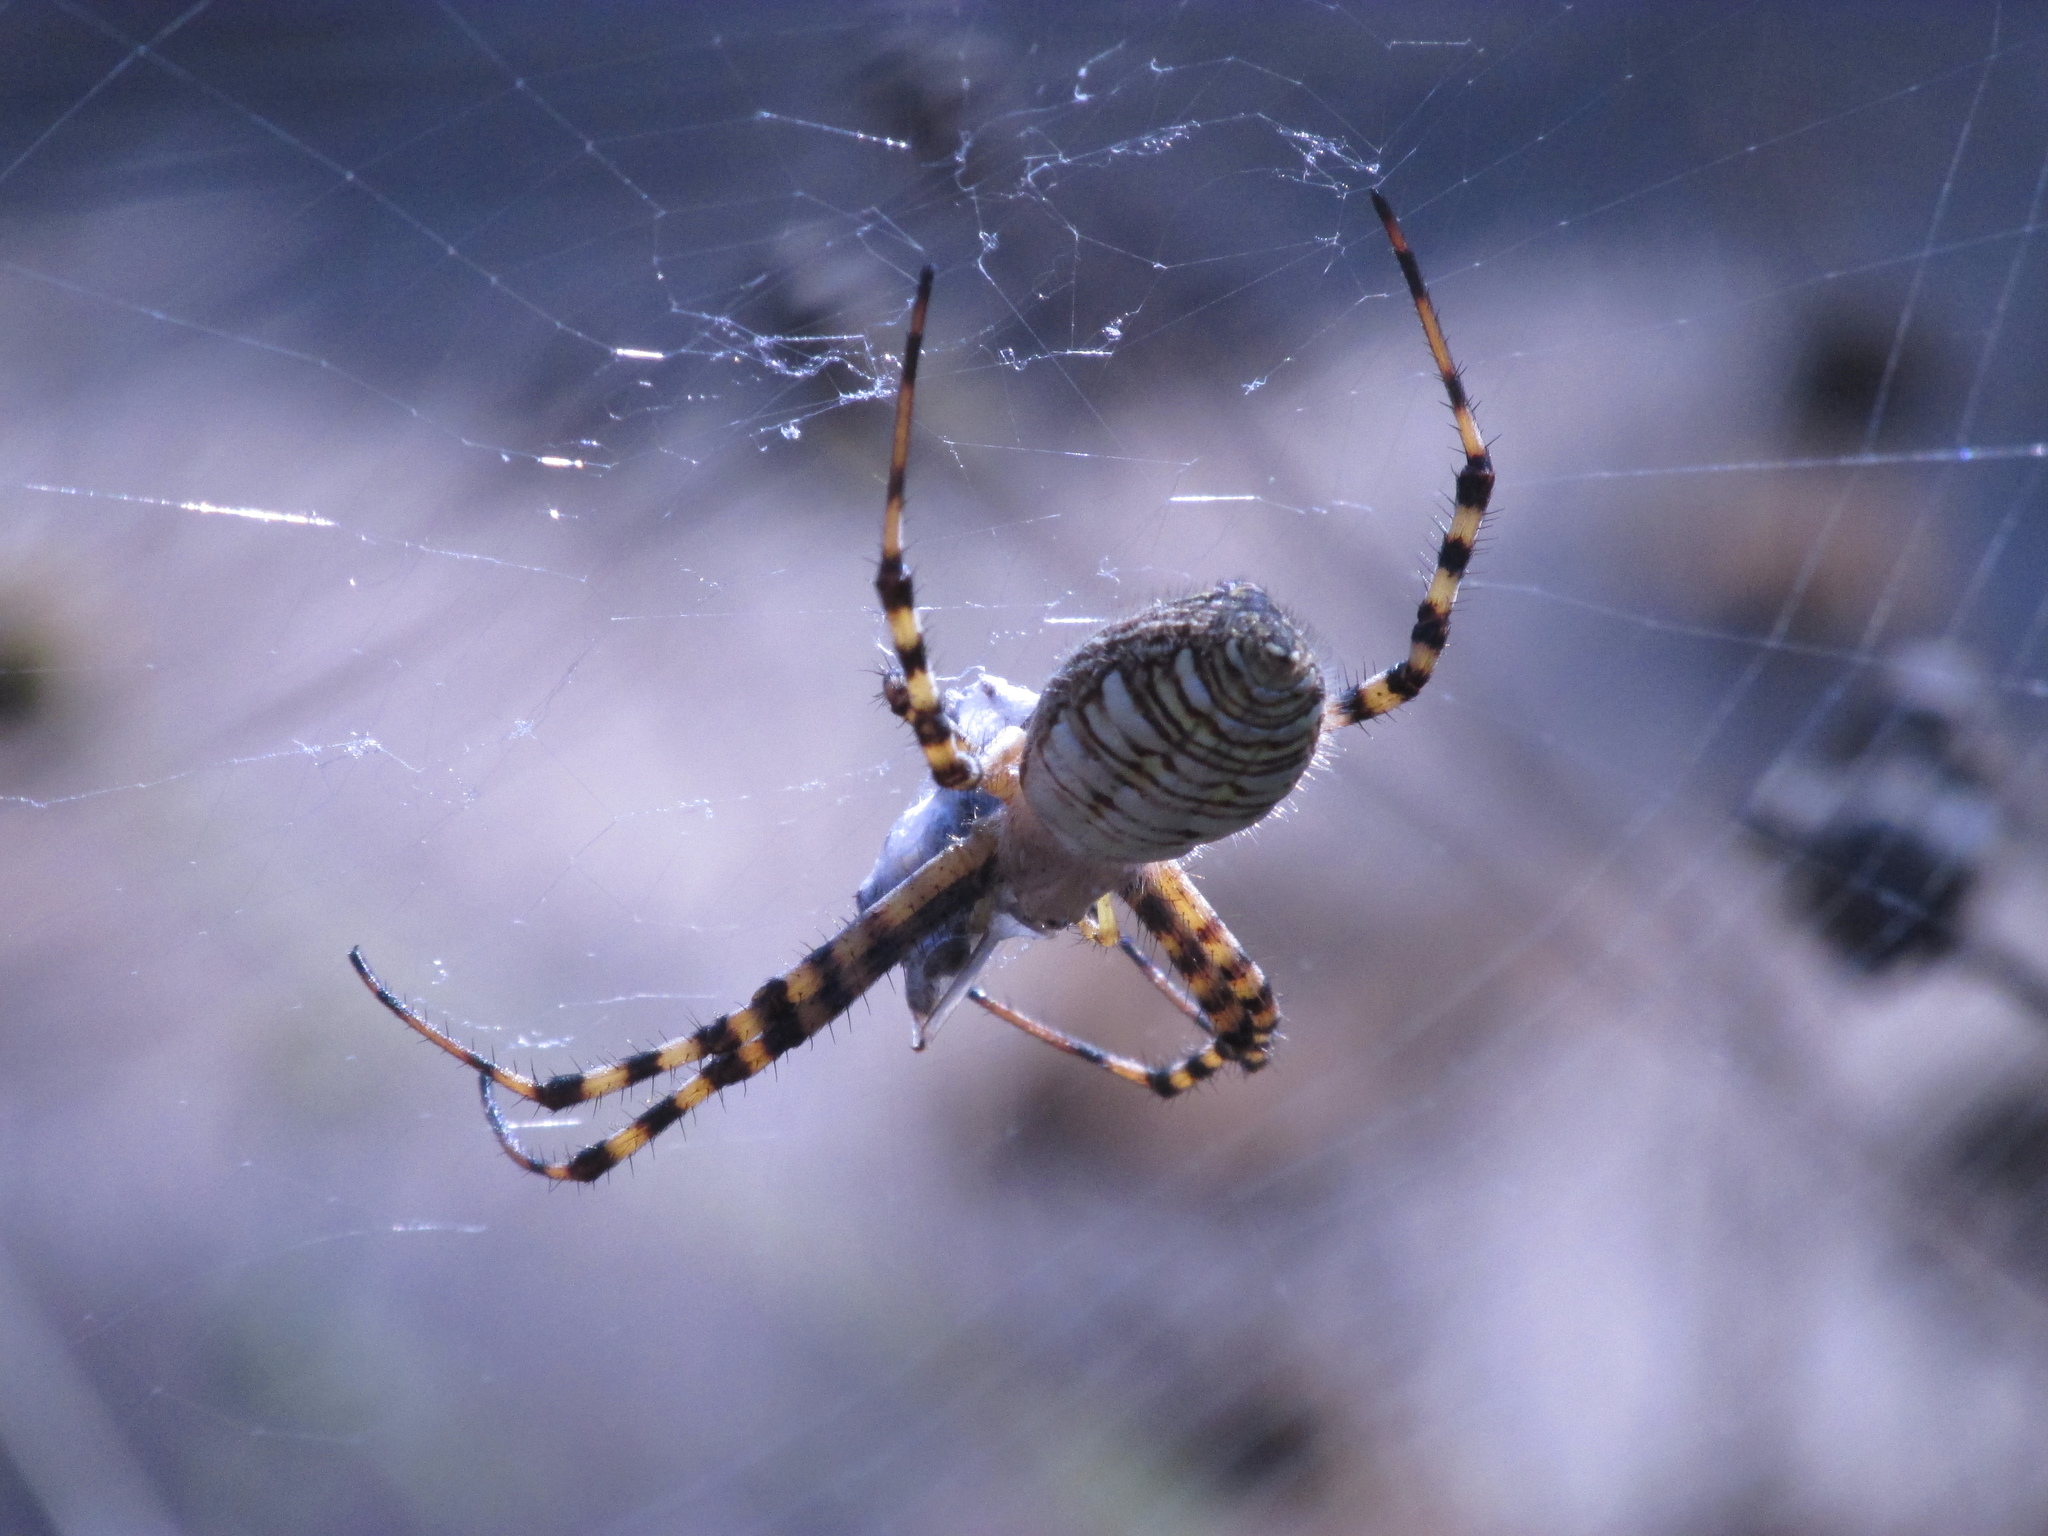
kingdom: Animalia
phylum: Arthropoda
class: Arachnida
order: Araneae
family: Araneidae
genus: Argiope
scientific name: Argiope trifasciata
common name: Banded garden spider
